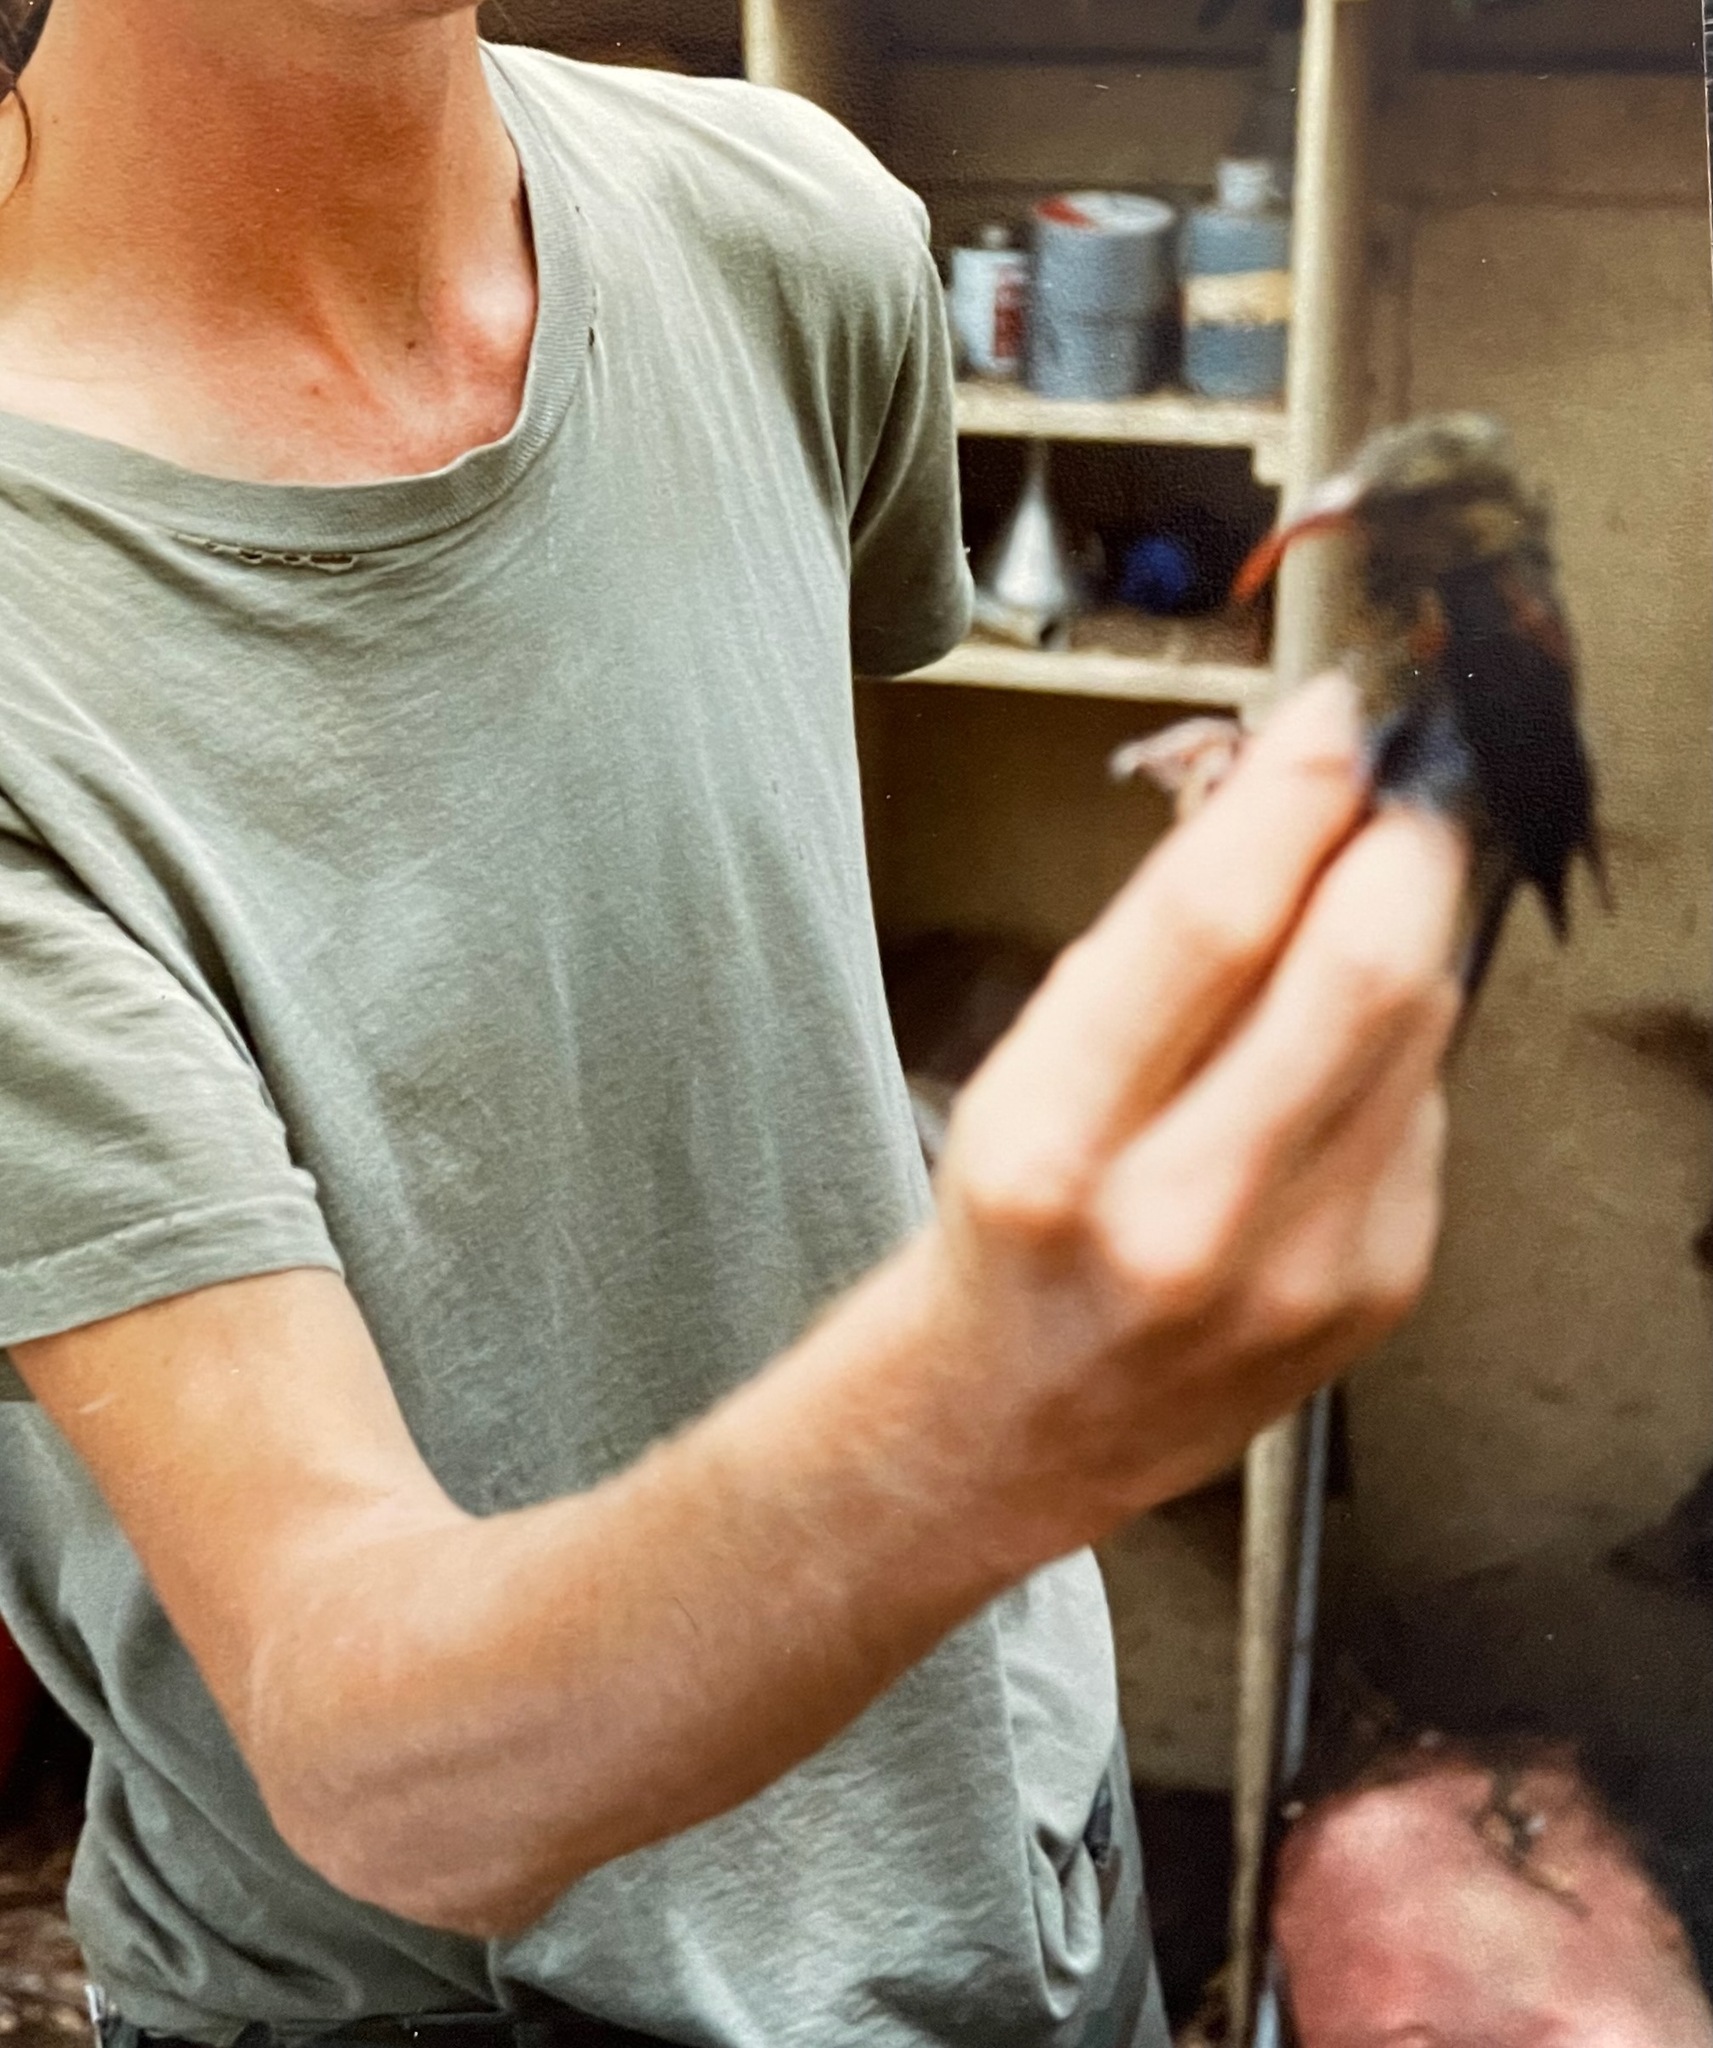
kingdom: Animalia
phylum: Chordata
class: Aves
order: Passeriformes
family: Fringillidae
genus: Vestiaria
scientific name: Vestiaria coccinea
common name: Iiwi
